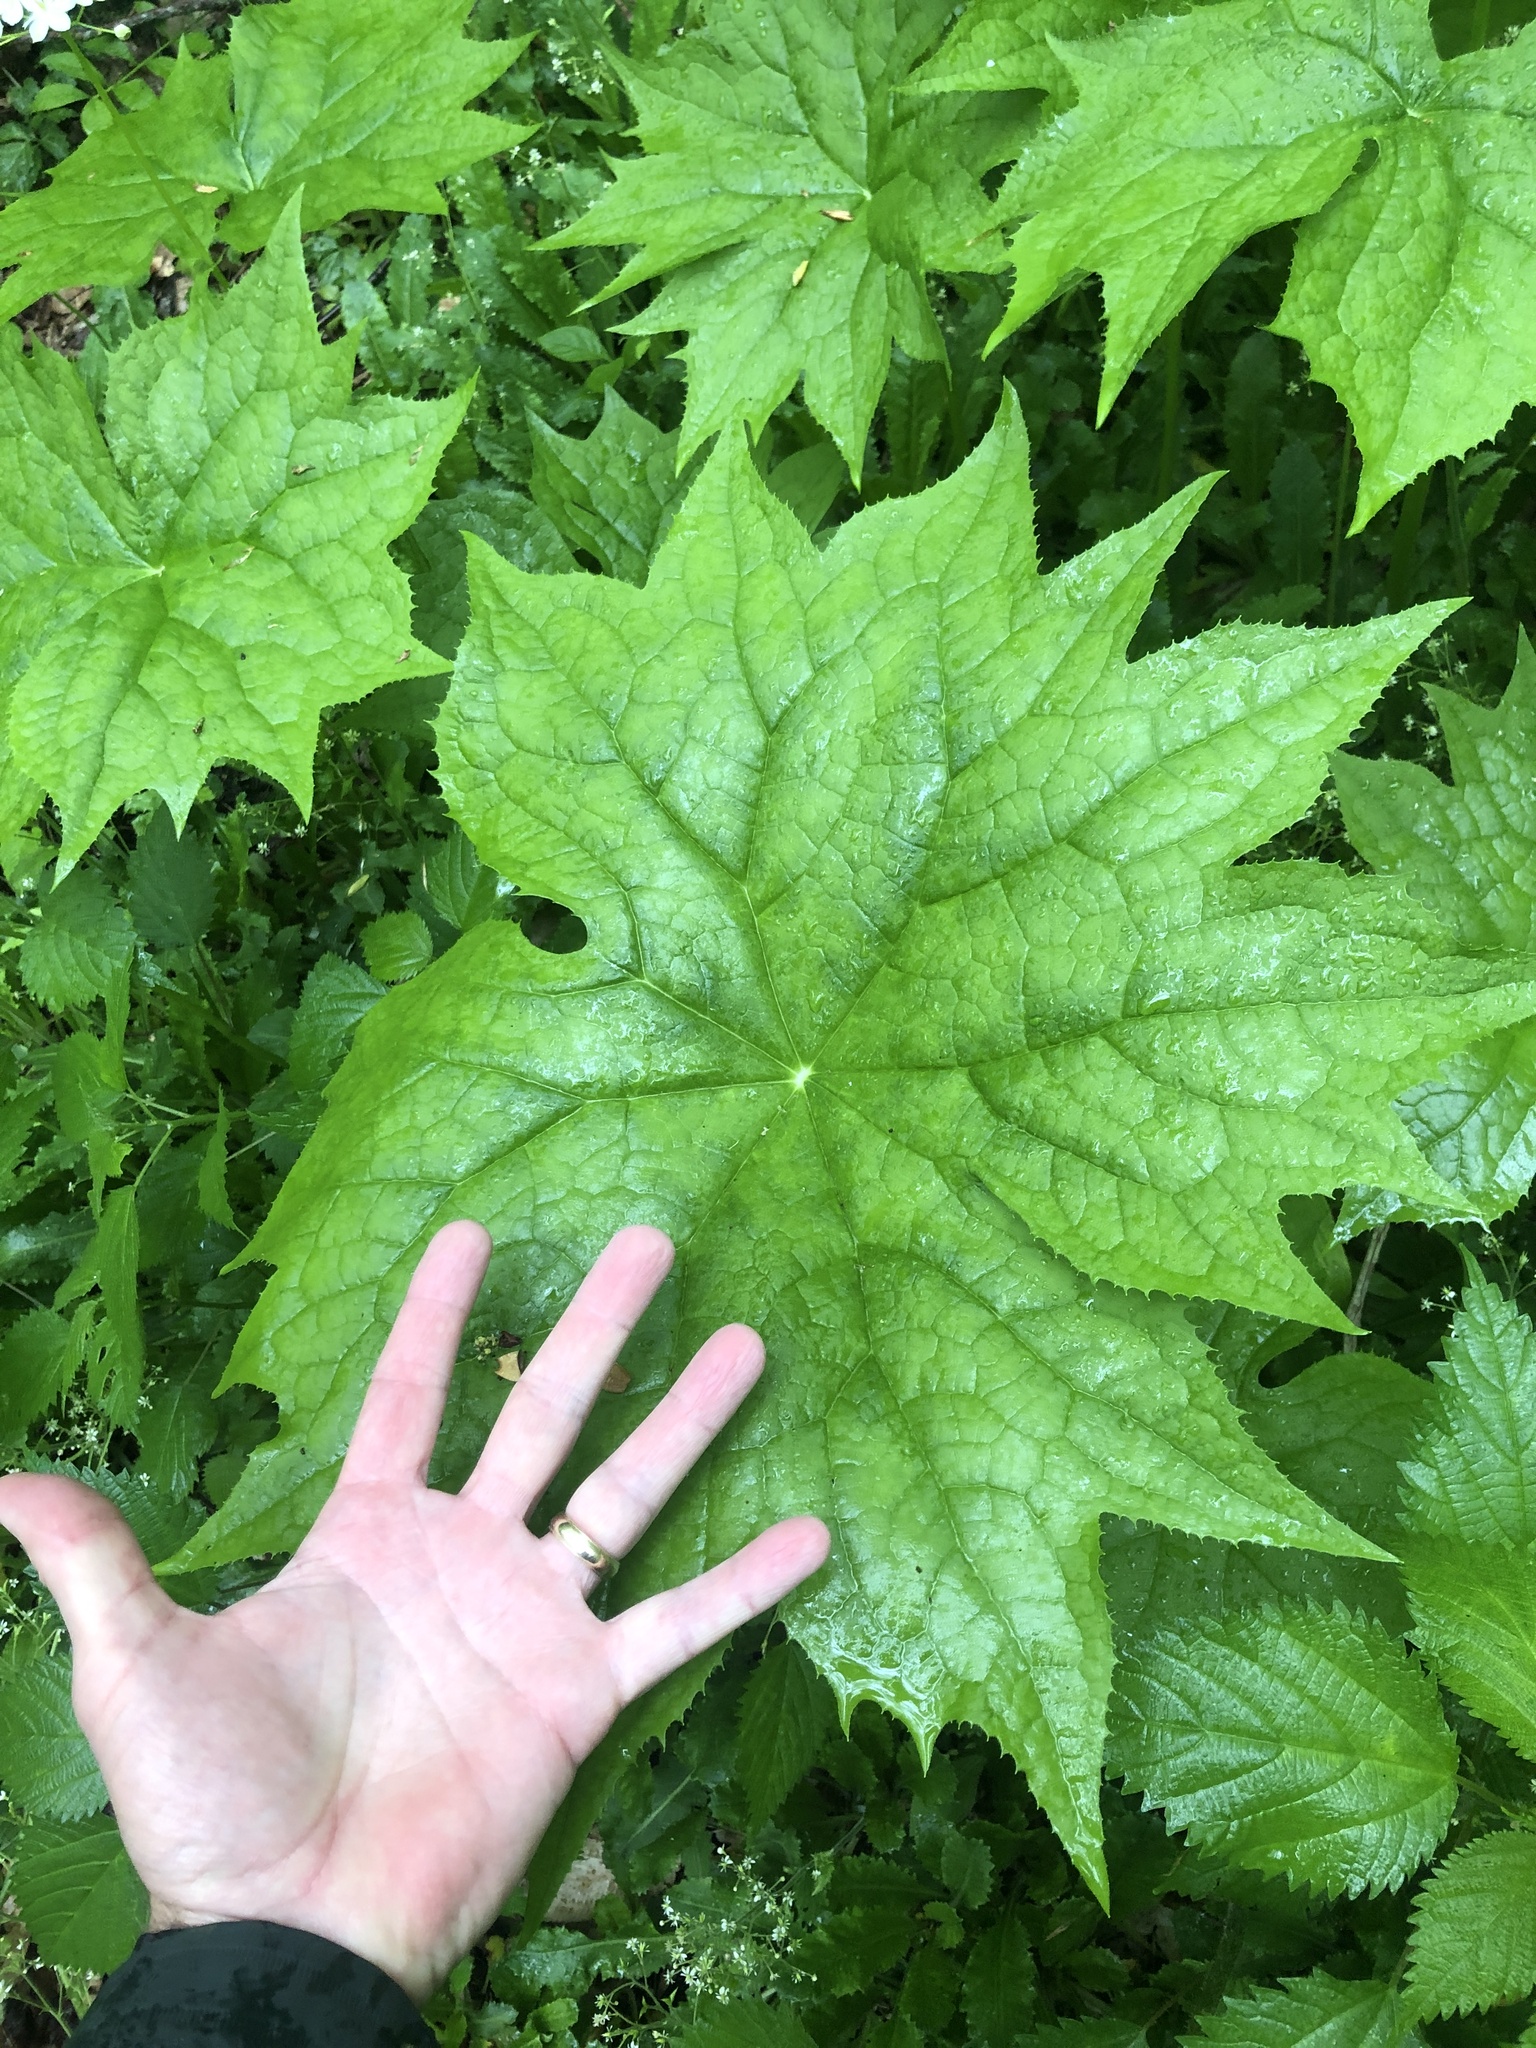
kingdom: Plantae
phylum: Tracheophyta
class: Magnoliopsida
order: Ranunculales
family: Berberidaceae
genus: Diphylleia
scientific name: Diphylleia cymosa
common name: Umbrella-leaf
